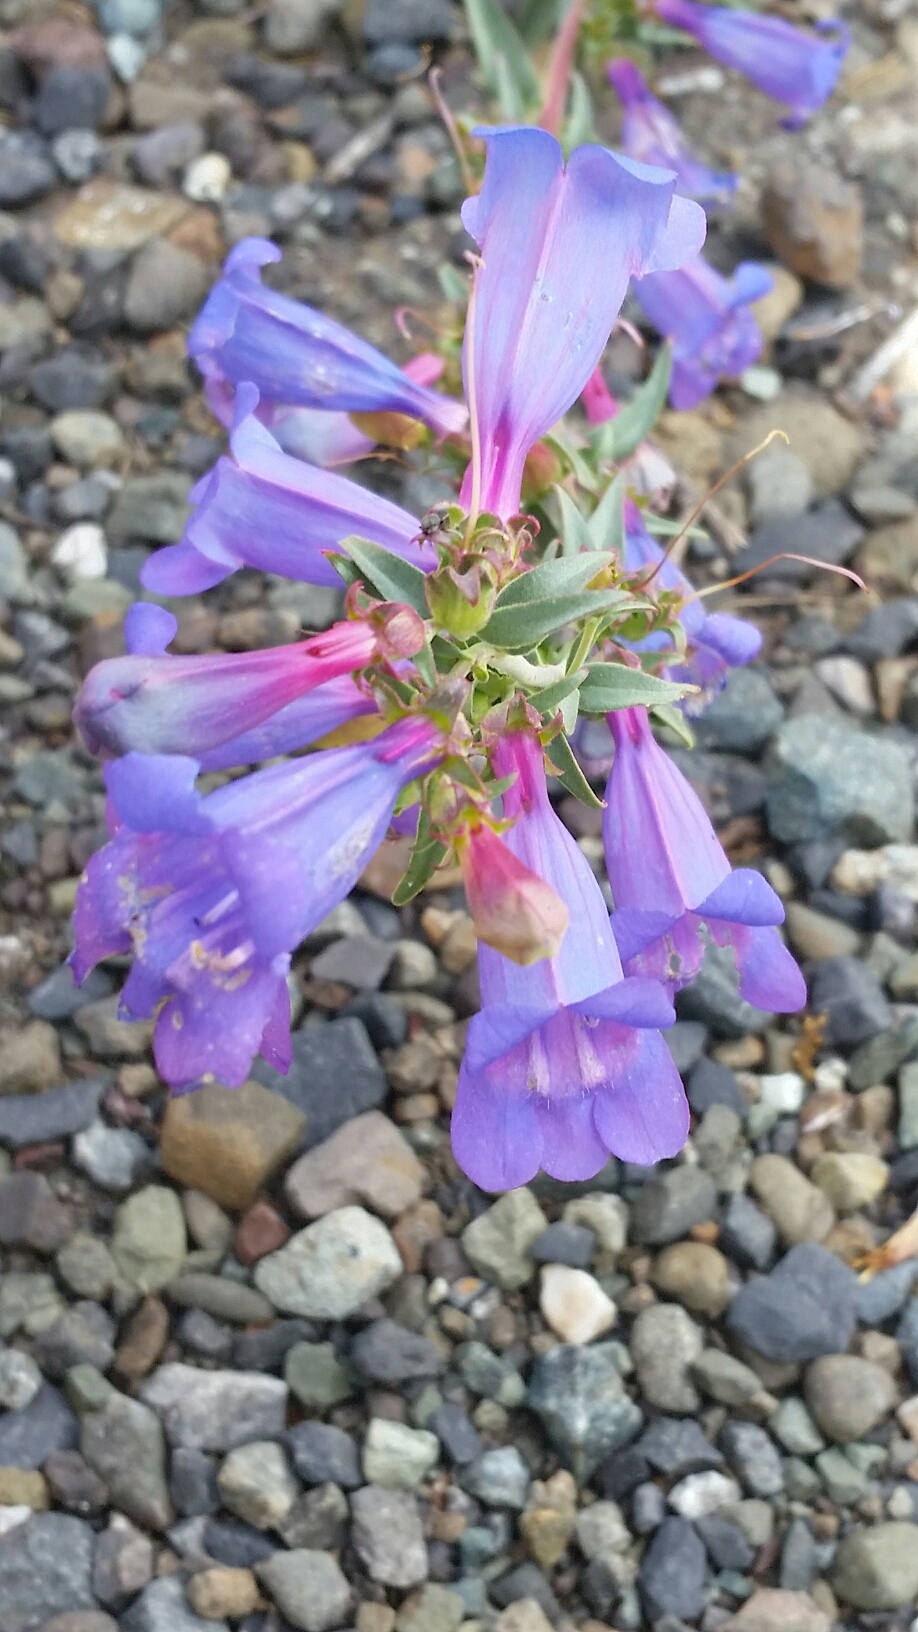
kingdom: Plantae
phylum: Tracheophyta
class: Magnoliopsida
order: Lamiales
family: Plantaginaceae
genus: Penstemon
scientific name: Penstemon heterophyllus
